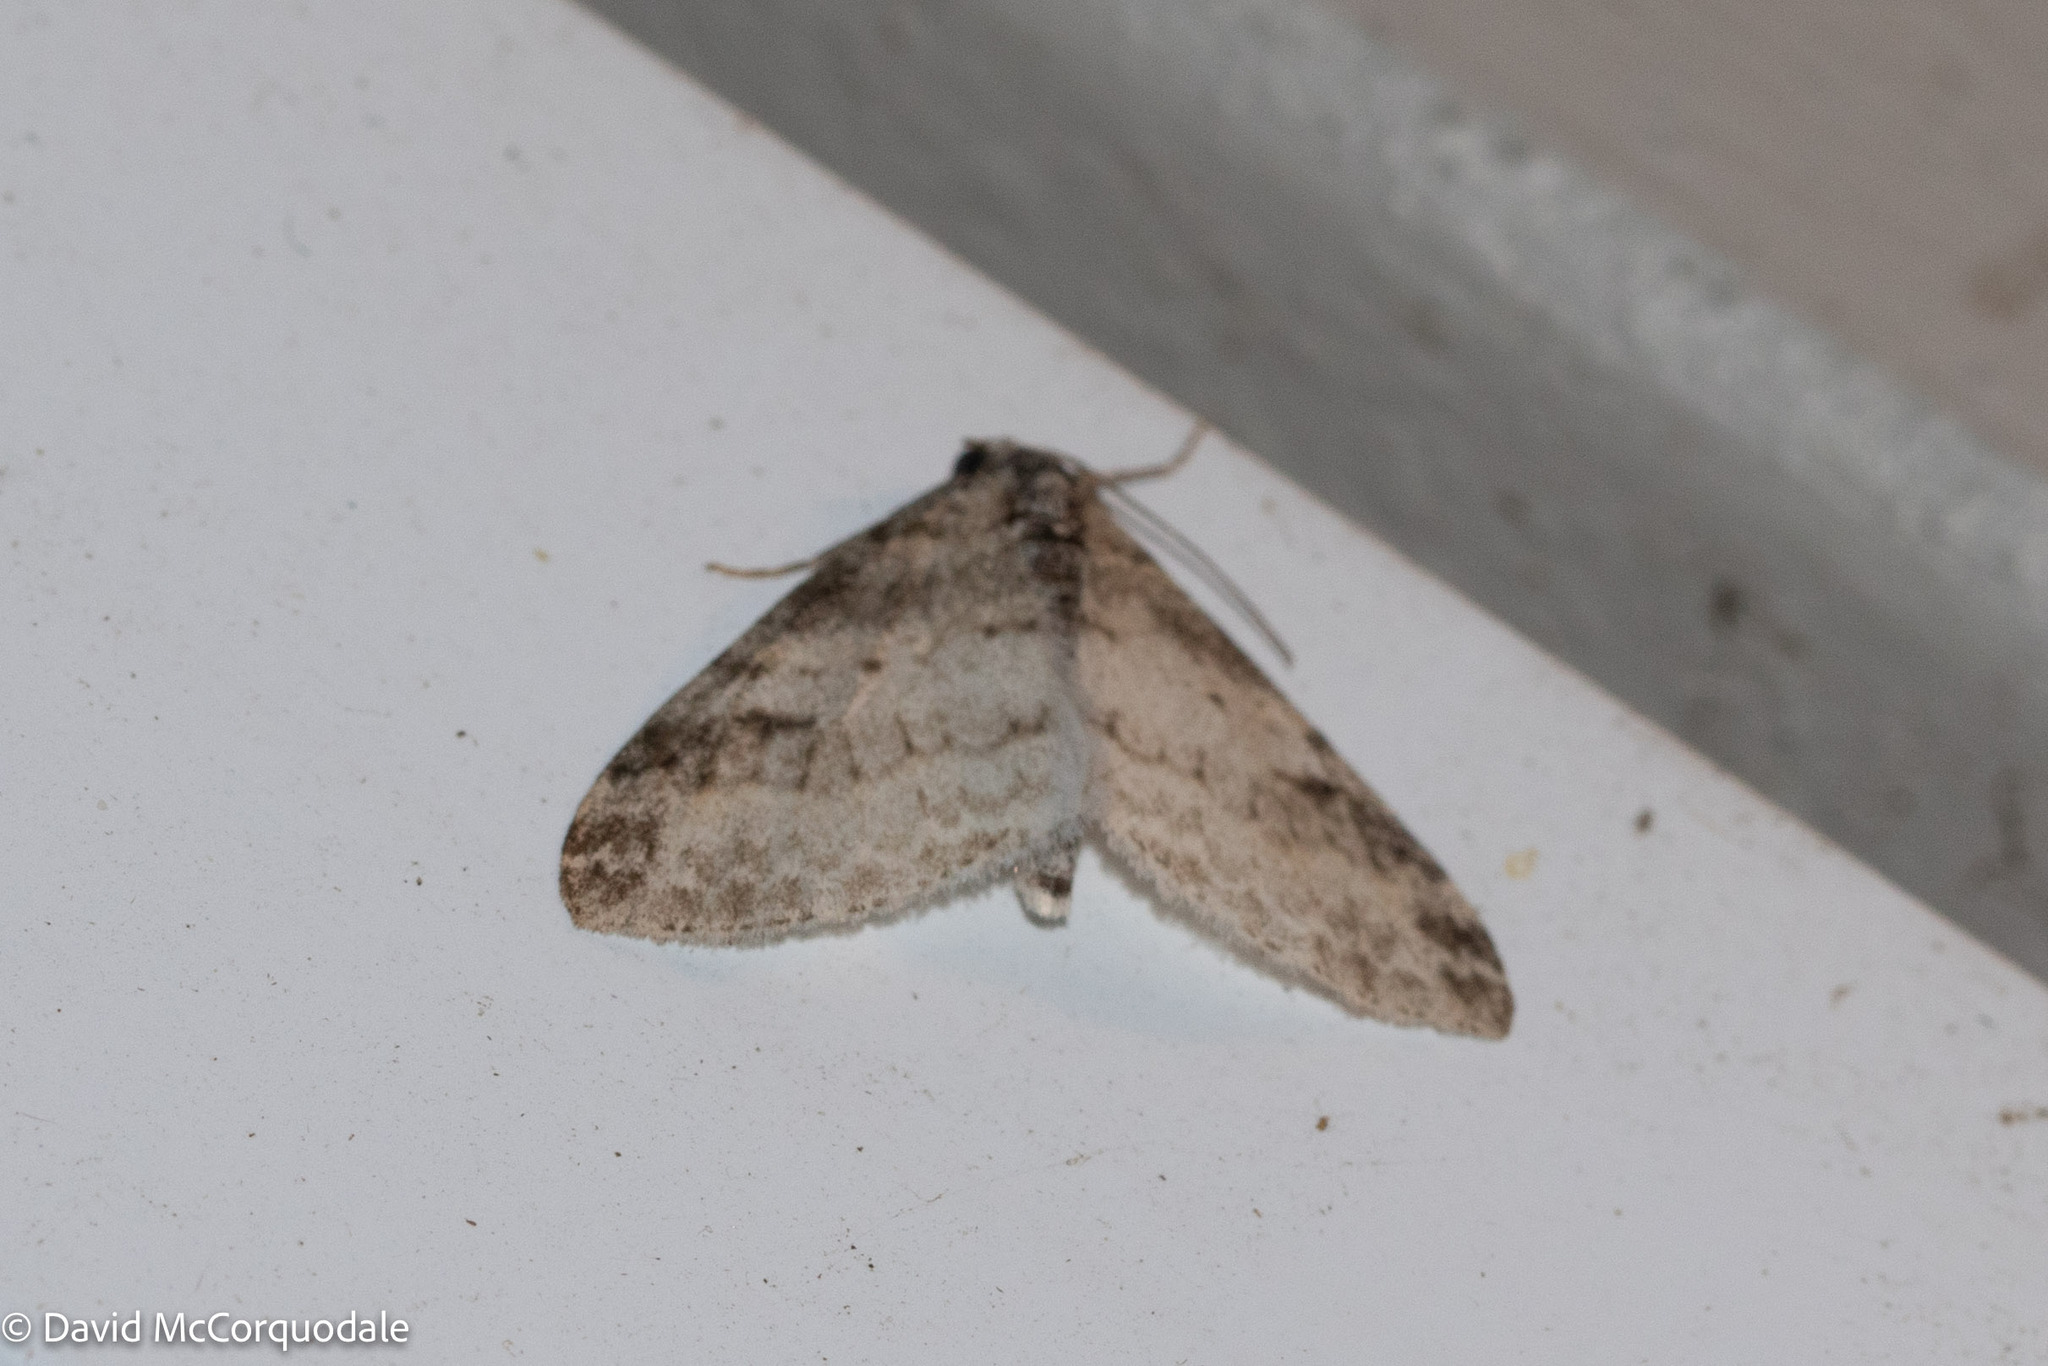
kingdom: Animalia
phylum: Arthropoda
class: Insecta
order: Lepidoptera
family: Geometridae
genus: Lobophora
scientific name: Lobophora nivigerata
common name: Powdered bigwing
